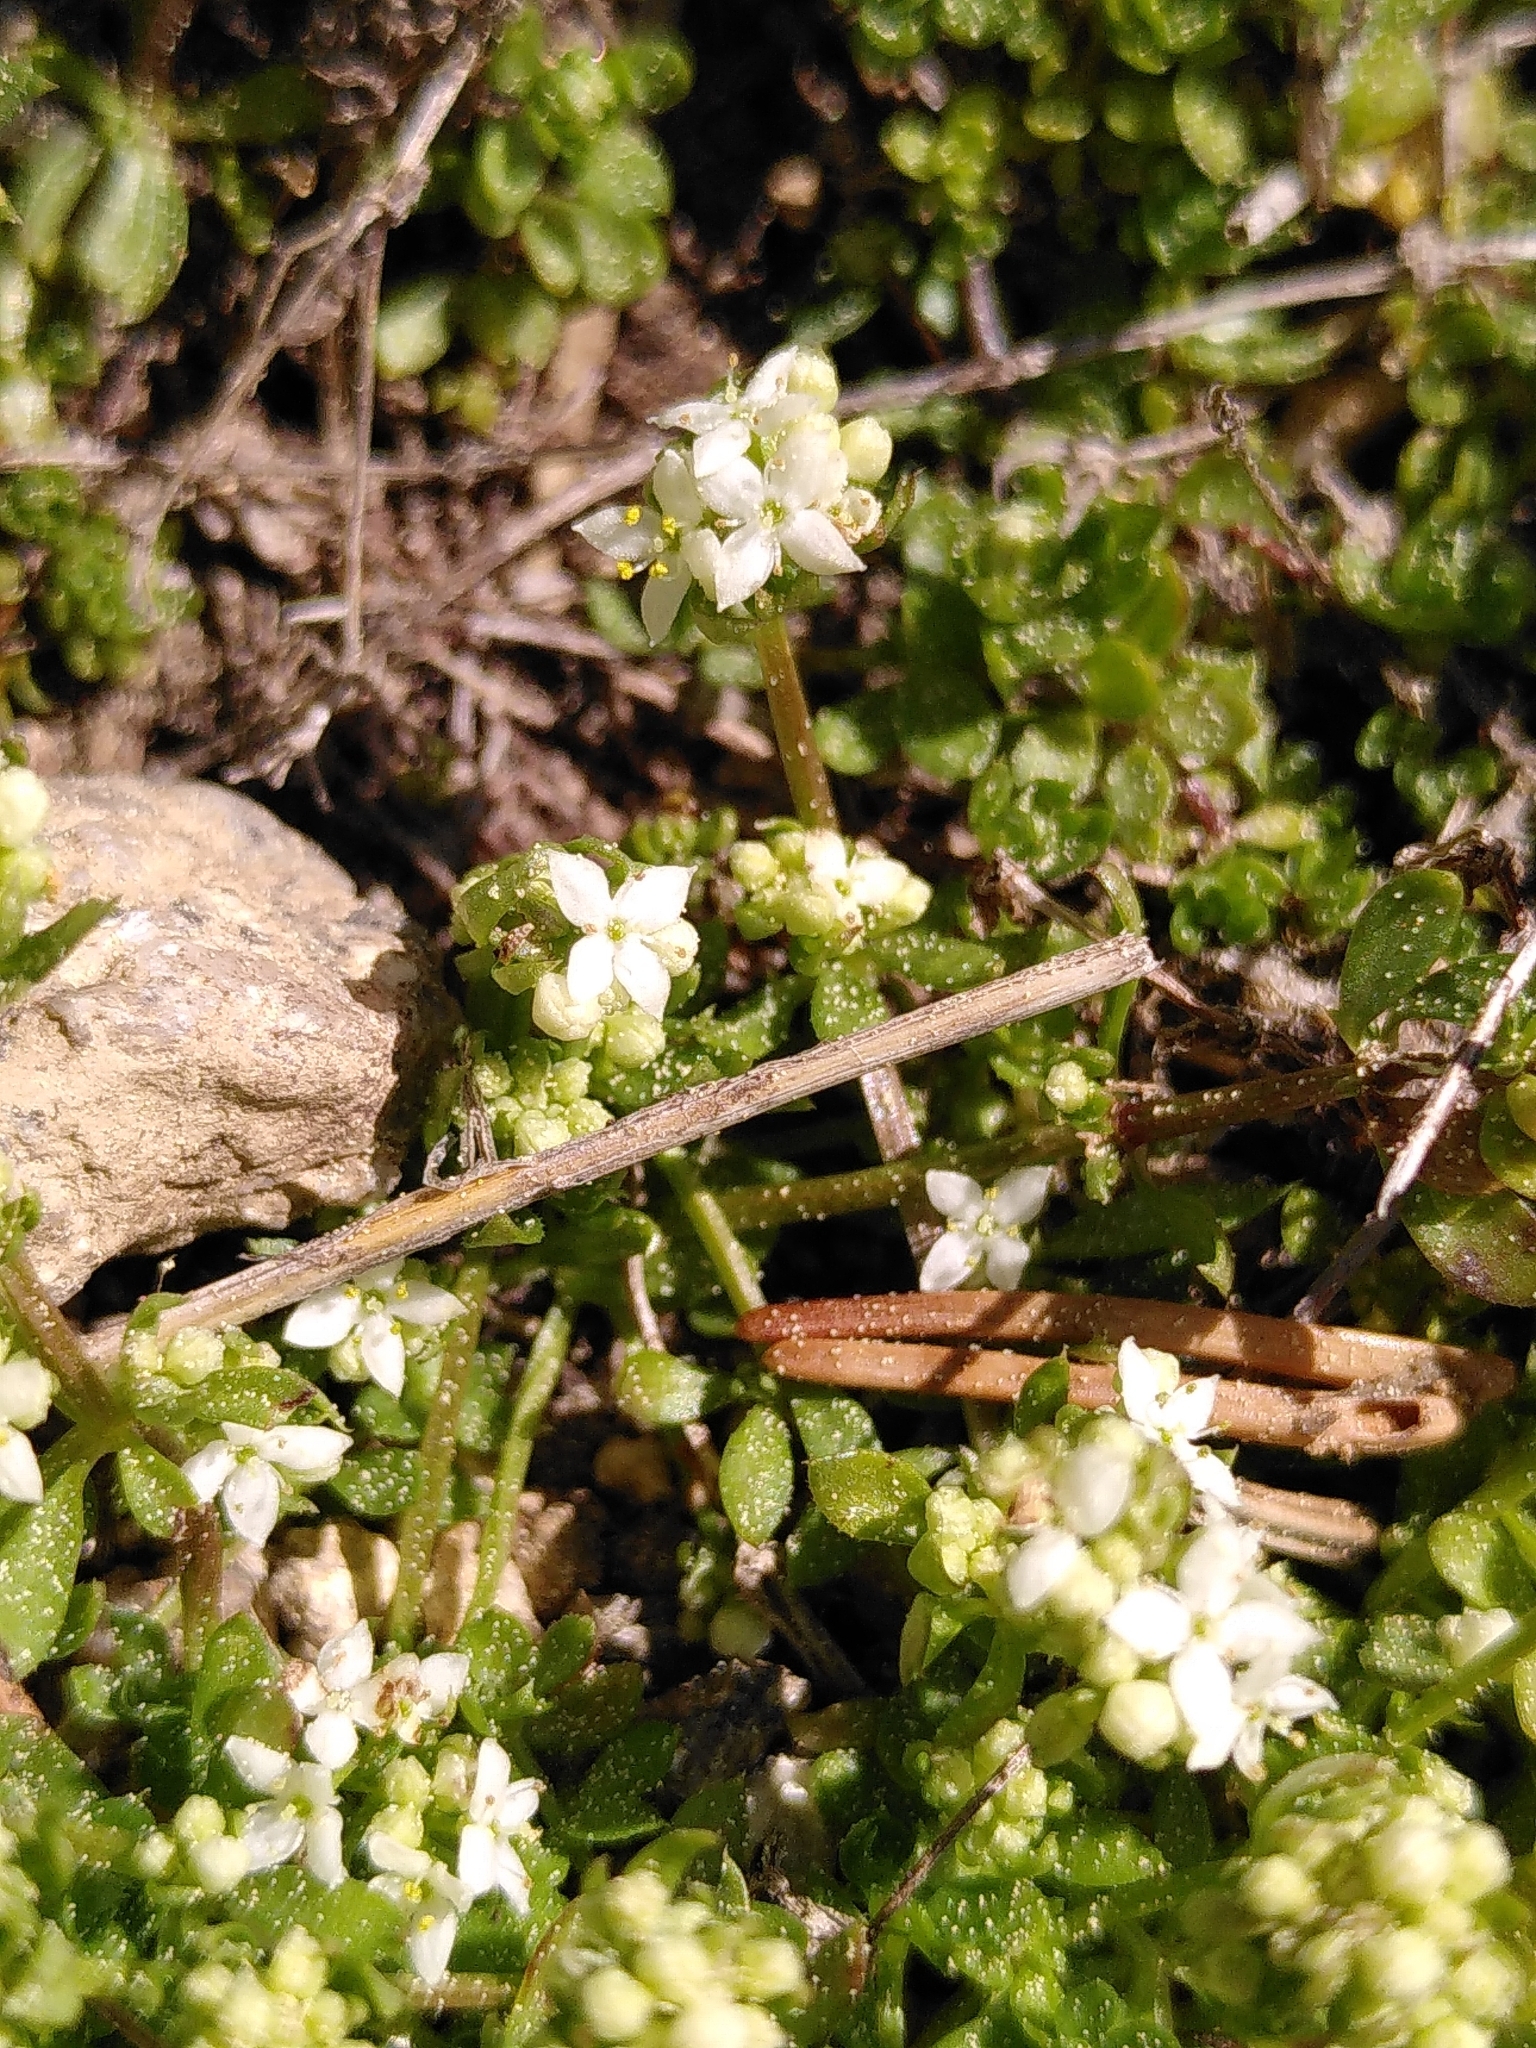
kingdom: Plantae
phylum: Tracheophyta
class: Magnoliopsida
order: Gentianales
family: Rubiaceae
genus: Galium
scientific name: Galium saxatile
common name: Heath bedstraw
